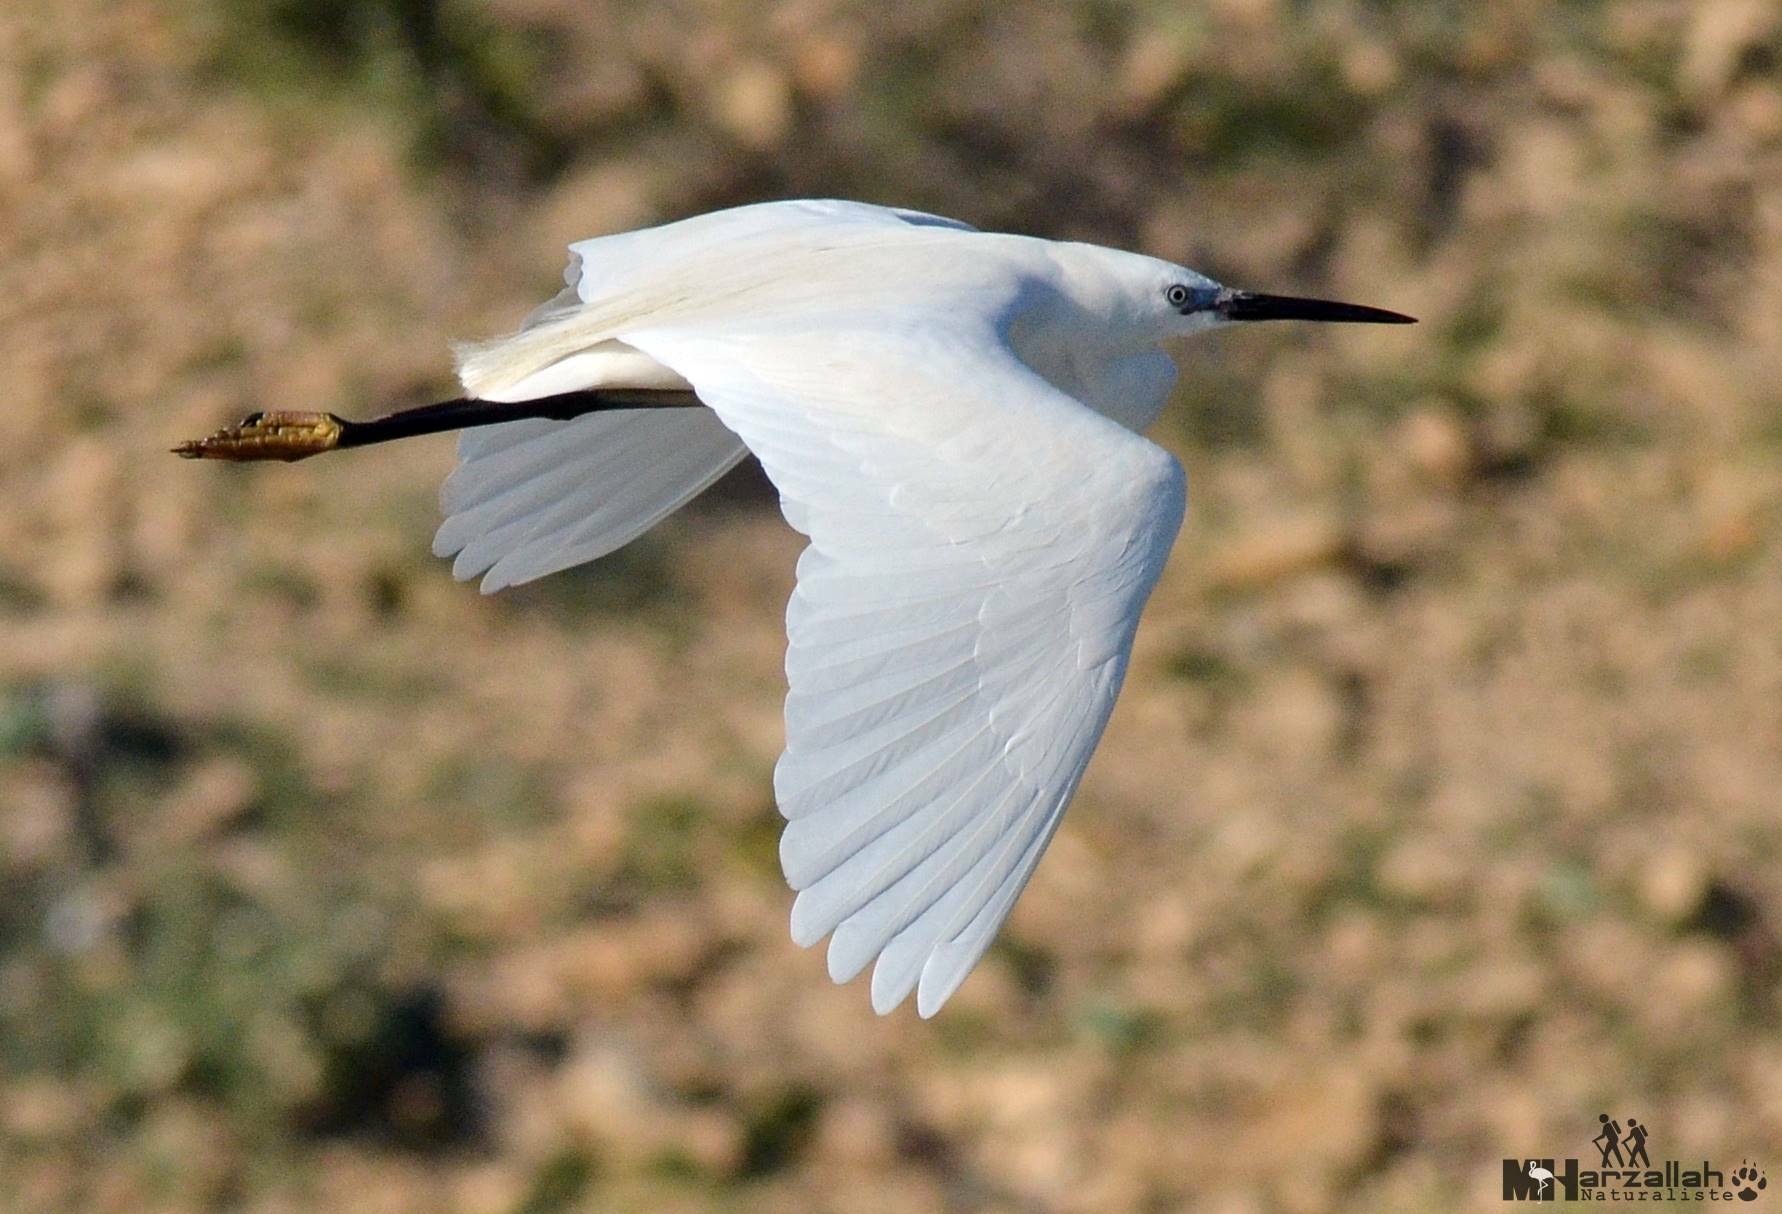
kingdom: Animalia
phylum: Chordata
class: Aves
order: Pelecaniformes
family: Ardeidae
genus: Egretta
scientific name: Egretta garzetta
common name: Little egret
